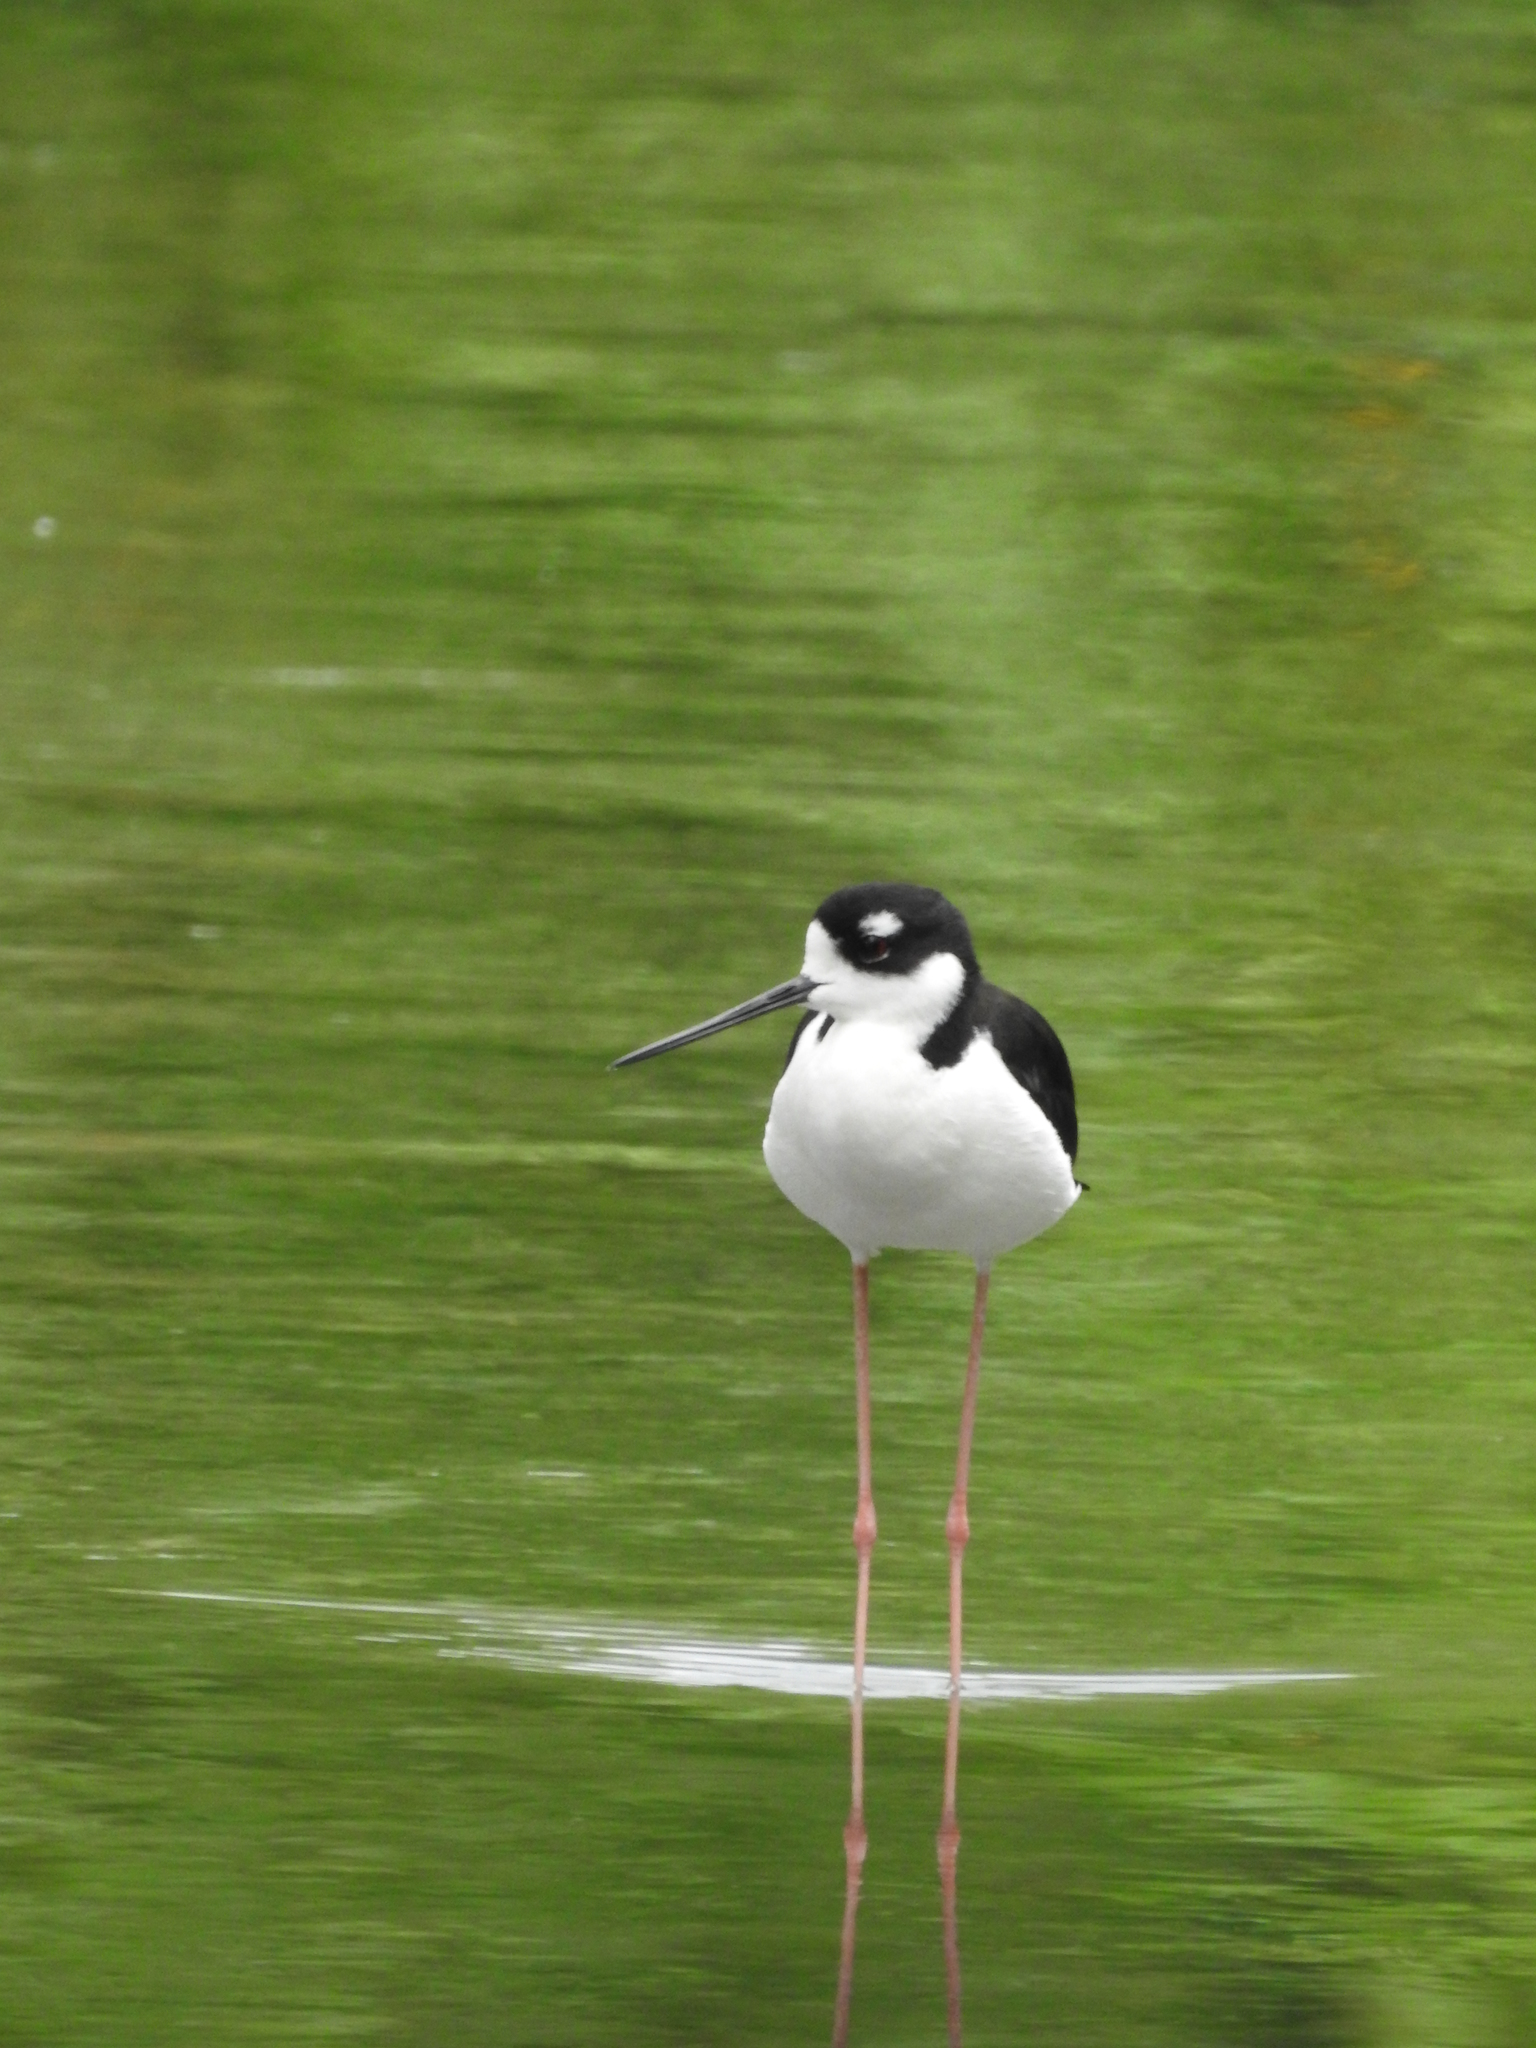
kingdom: Animalia
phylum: Chordata
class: Aves
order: Charadriiformes
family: Recurvirostridae
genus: Himantopus
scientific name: Himantopus mexicanus
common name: Black-necked stilt
